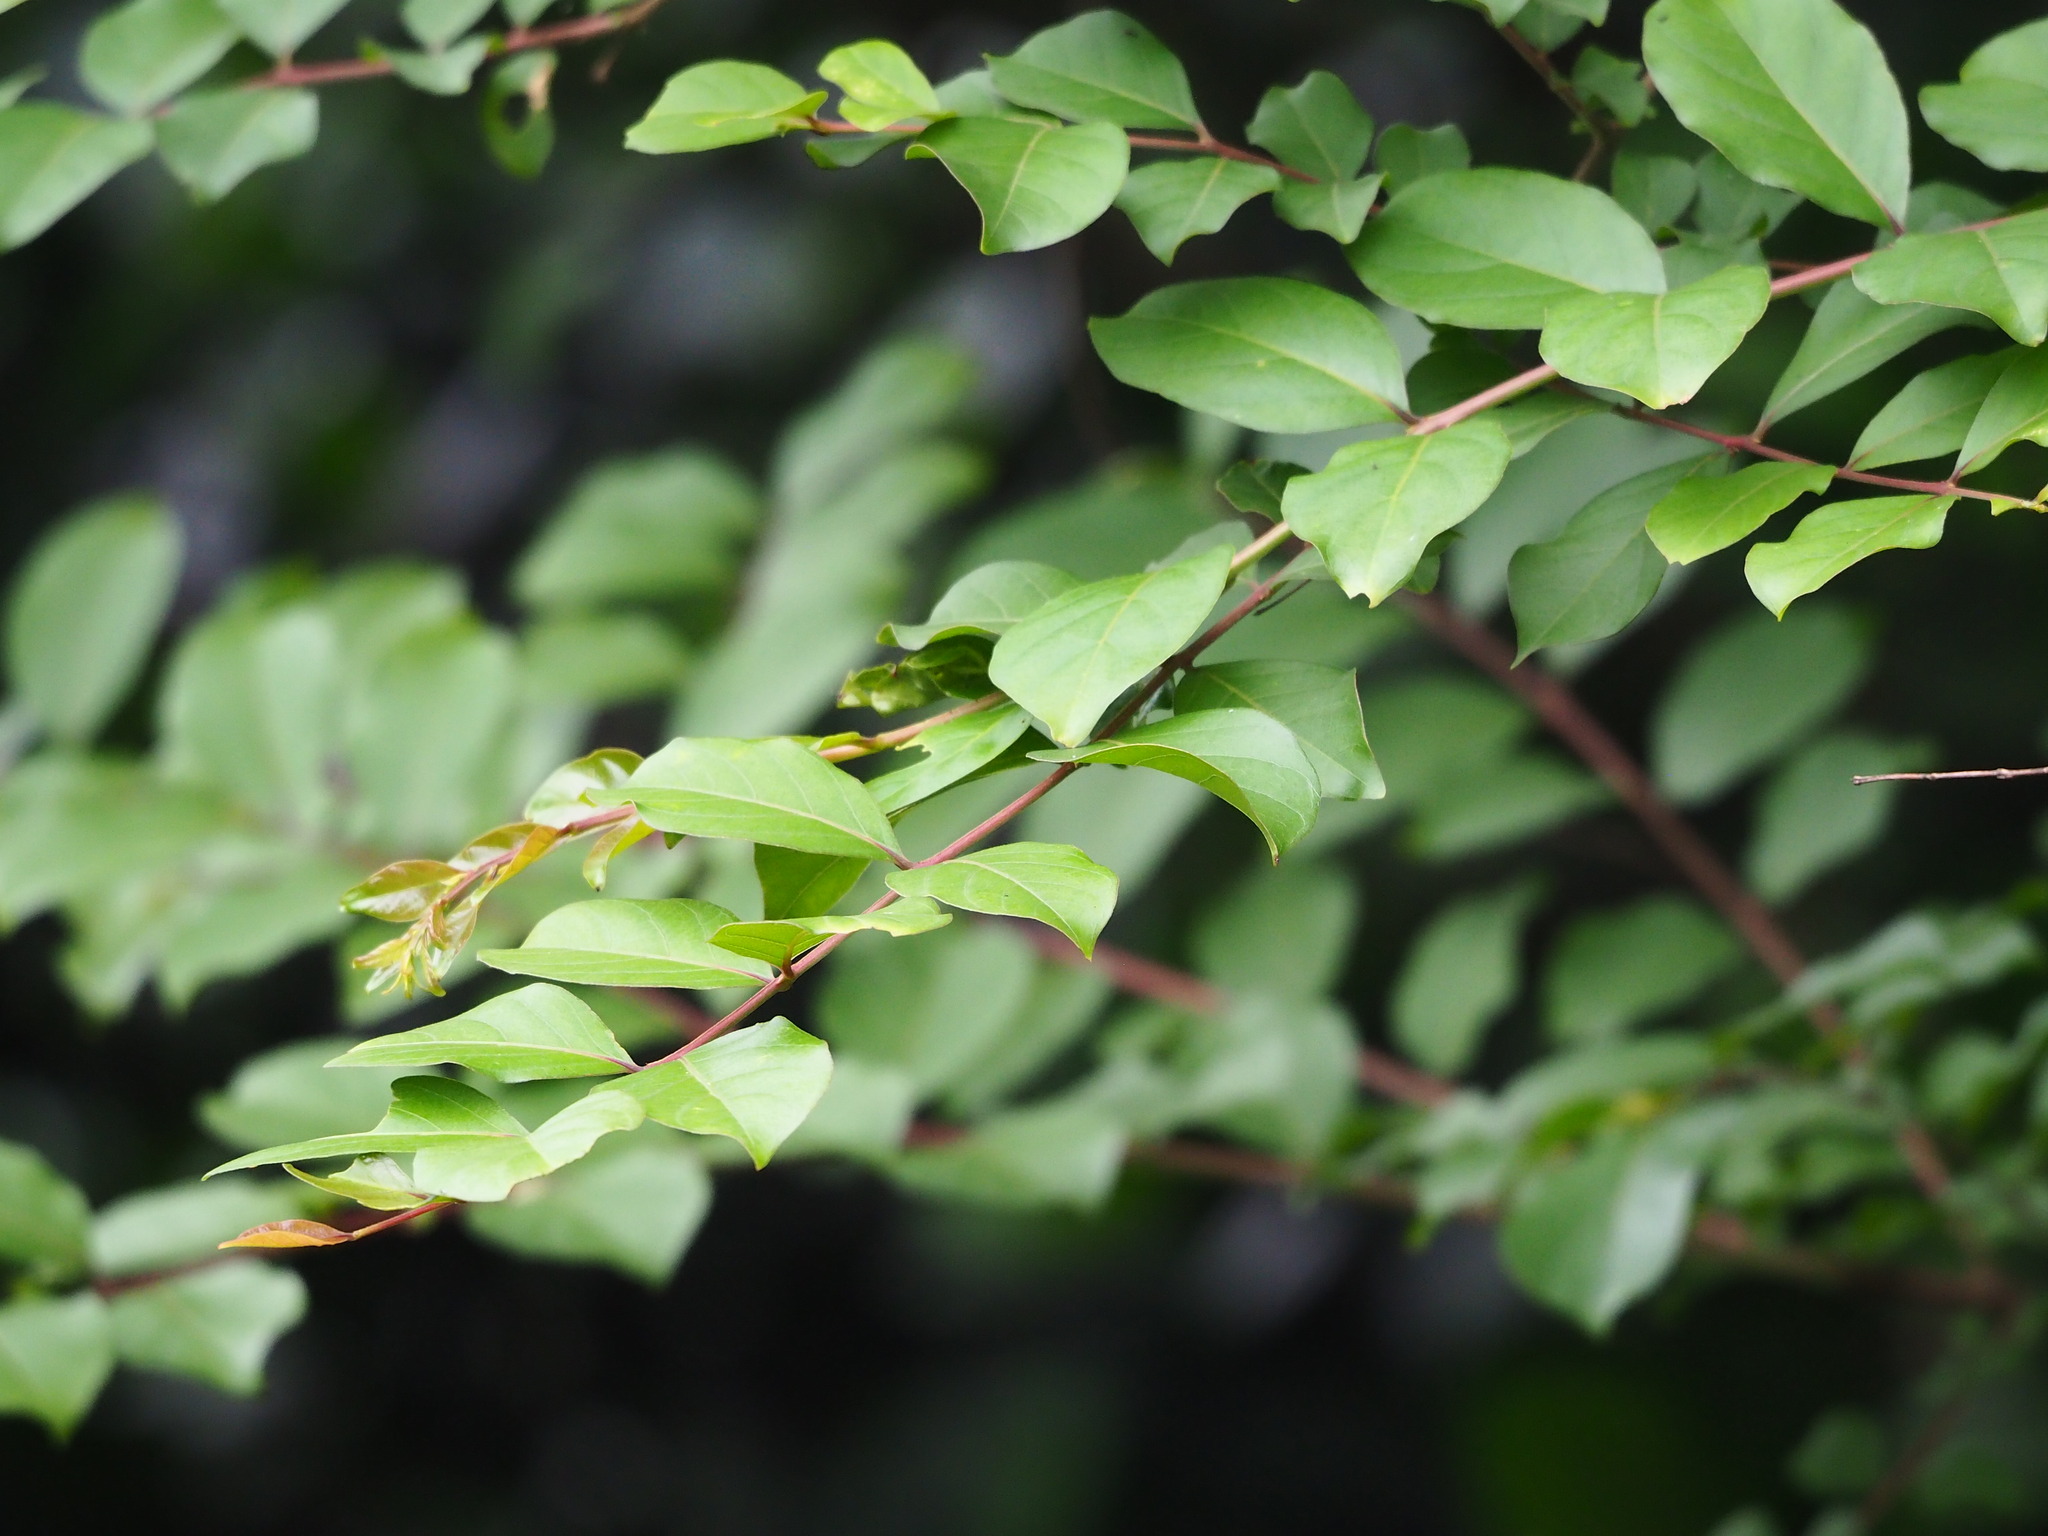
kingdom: Plantae
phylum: Tracheophyta
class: Magnoliopsida
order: Myrtales
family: Lythraceae
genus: Lagerstroemia
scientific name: Lagerstroemia subcostata
